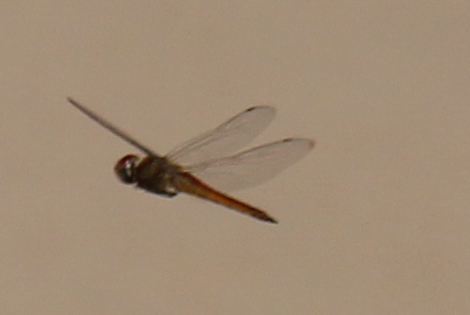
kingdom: Animalia
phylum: Arthropoda
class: Insecta
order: Odonata
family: Libellulidae
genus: Pantala
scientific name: Pantala flavescens
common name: Wandering glider
